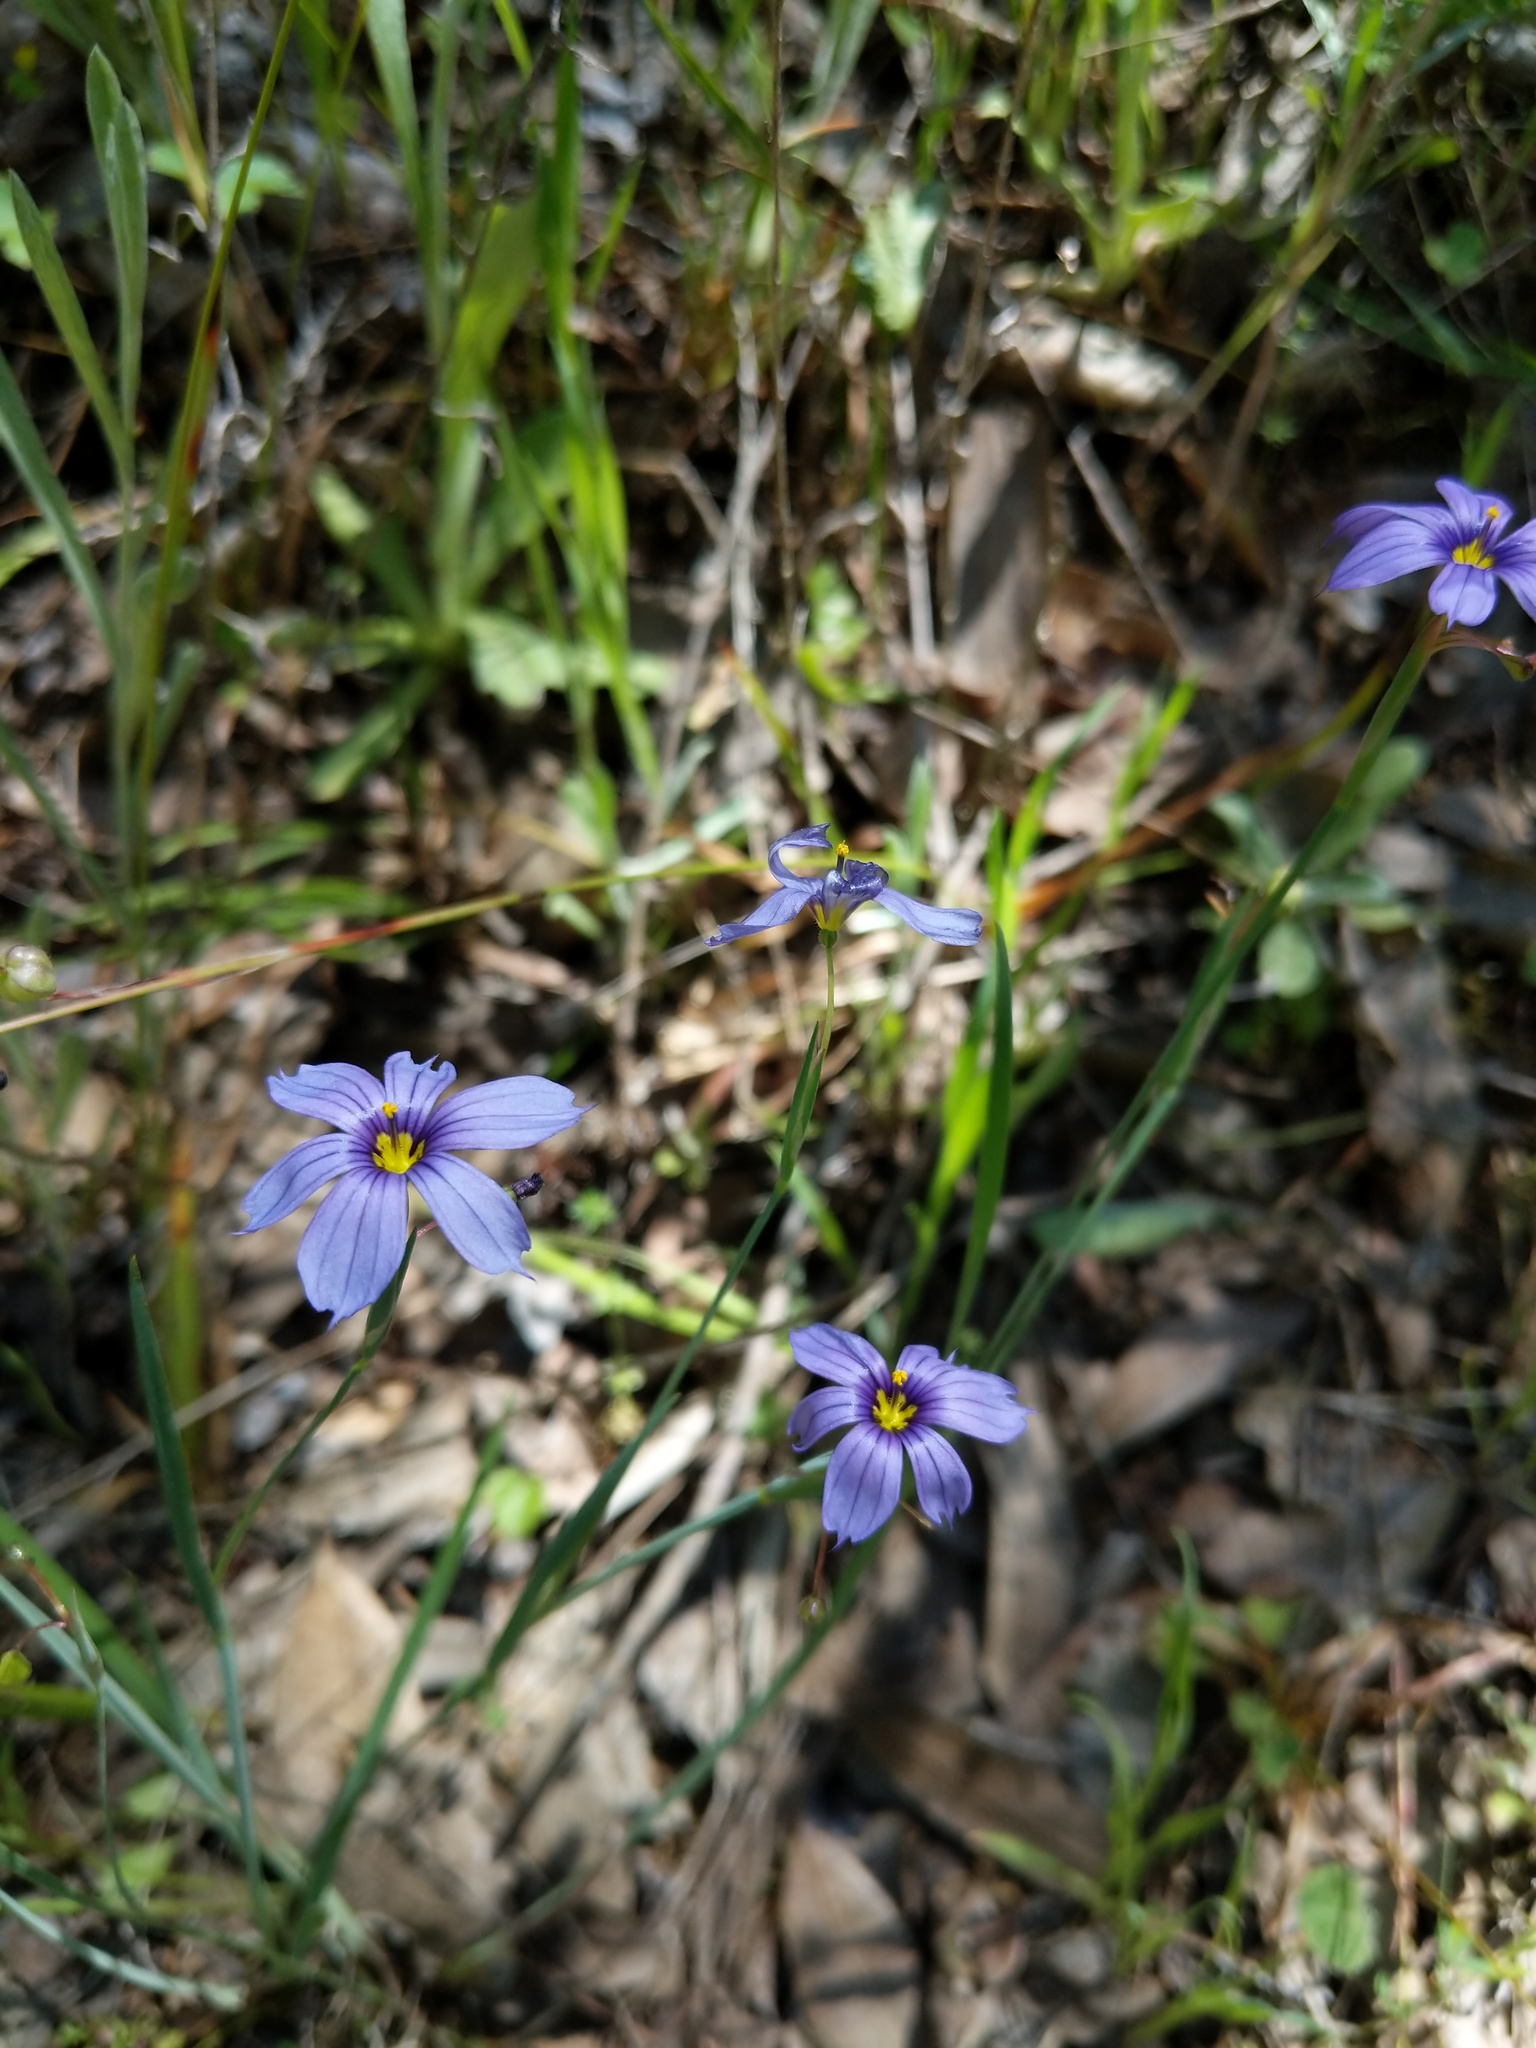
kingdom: Plantae
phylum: Tracheophyta
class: Liliopsida
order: Asparagales
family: Iridaceae
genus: Sisyrinchium
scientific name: Sisyrinchium bellum
